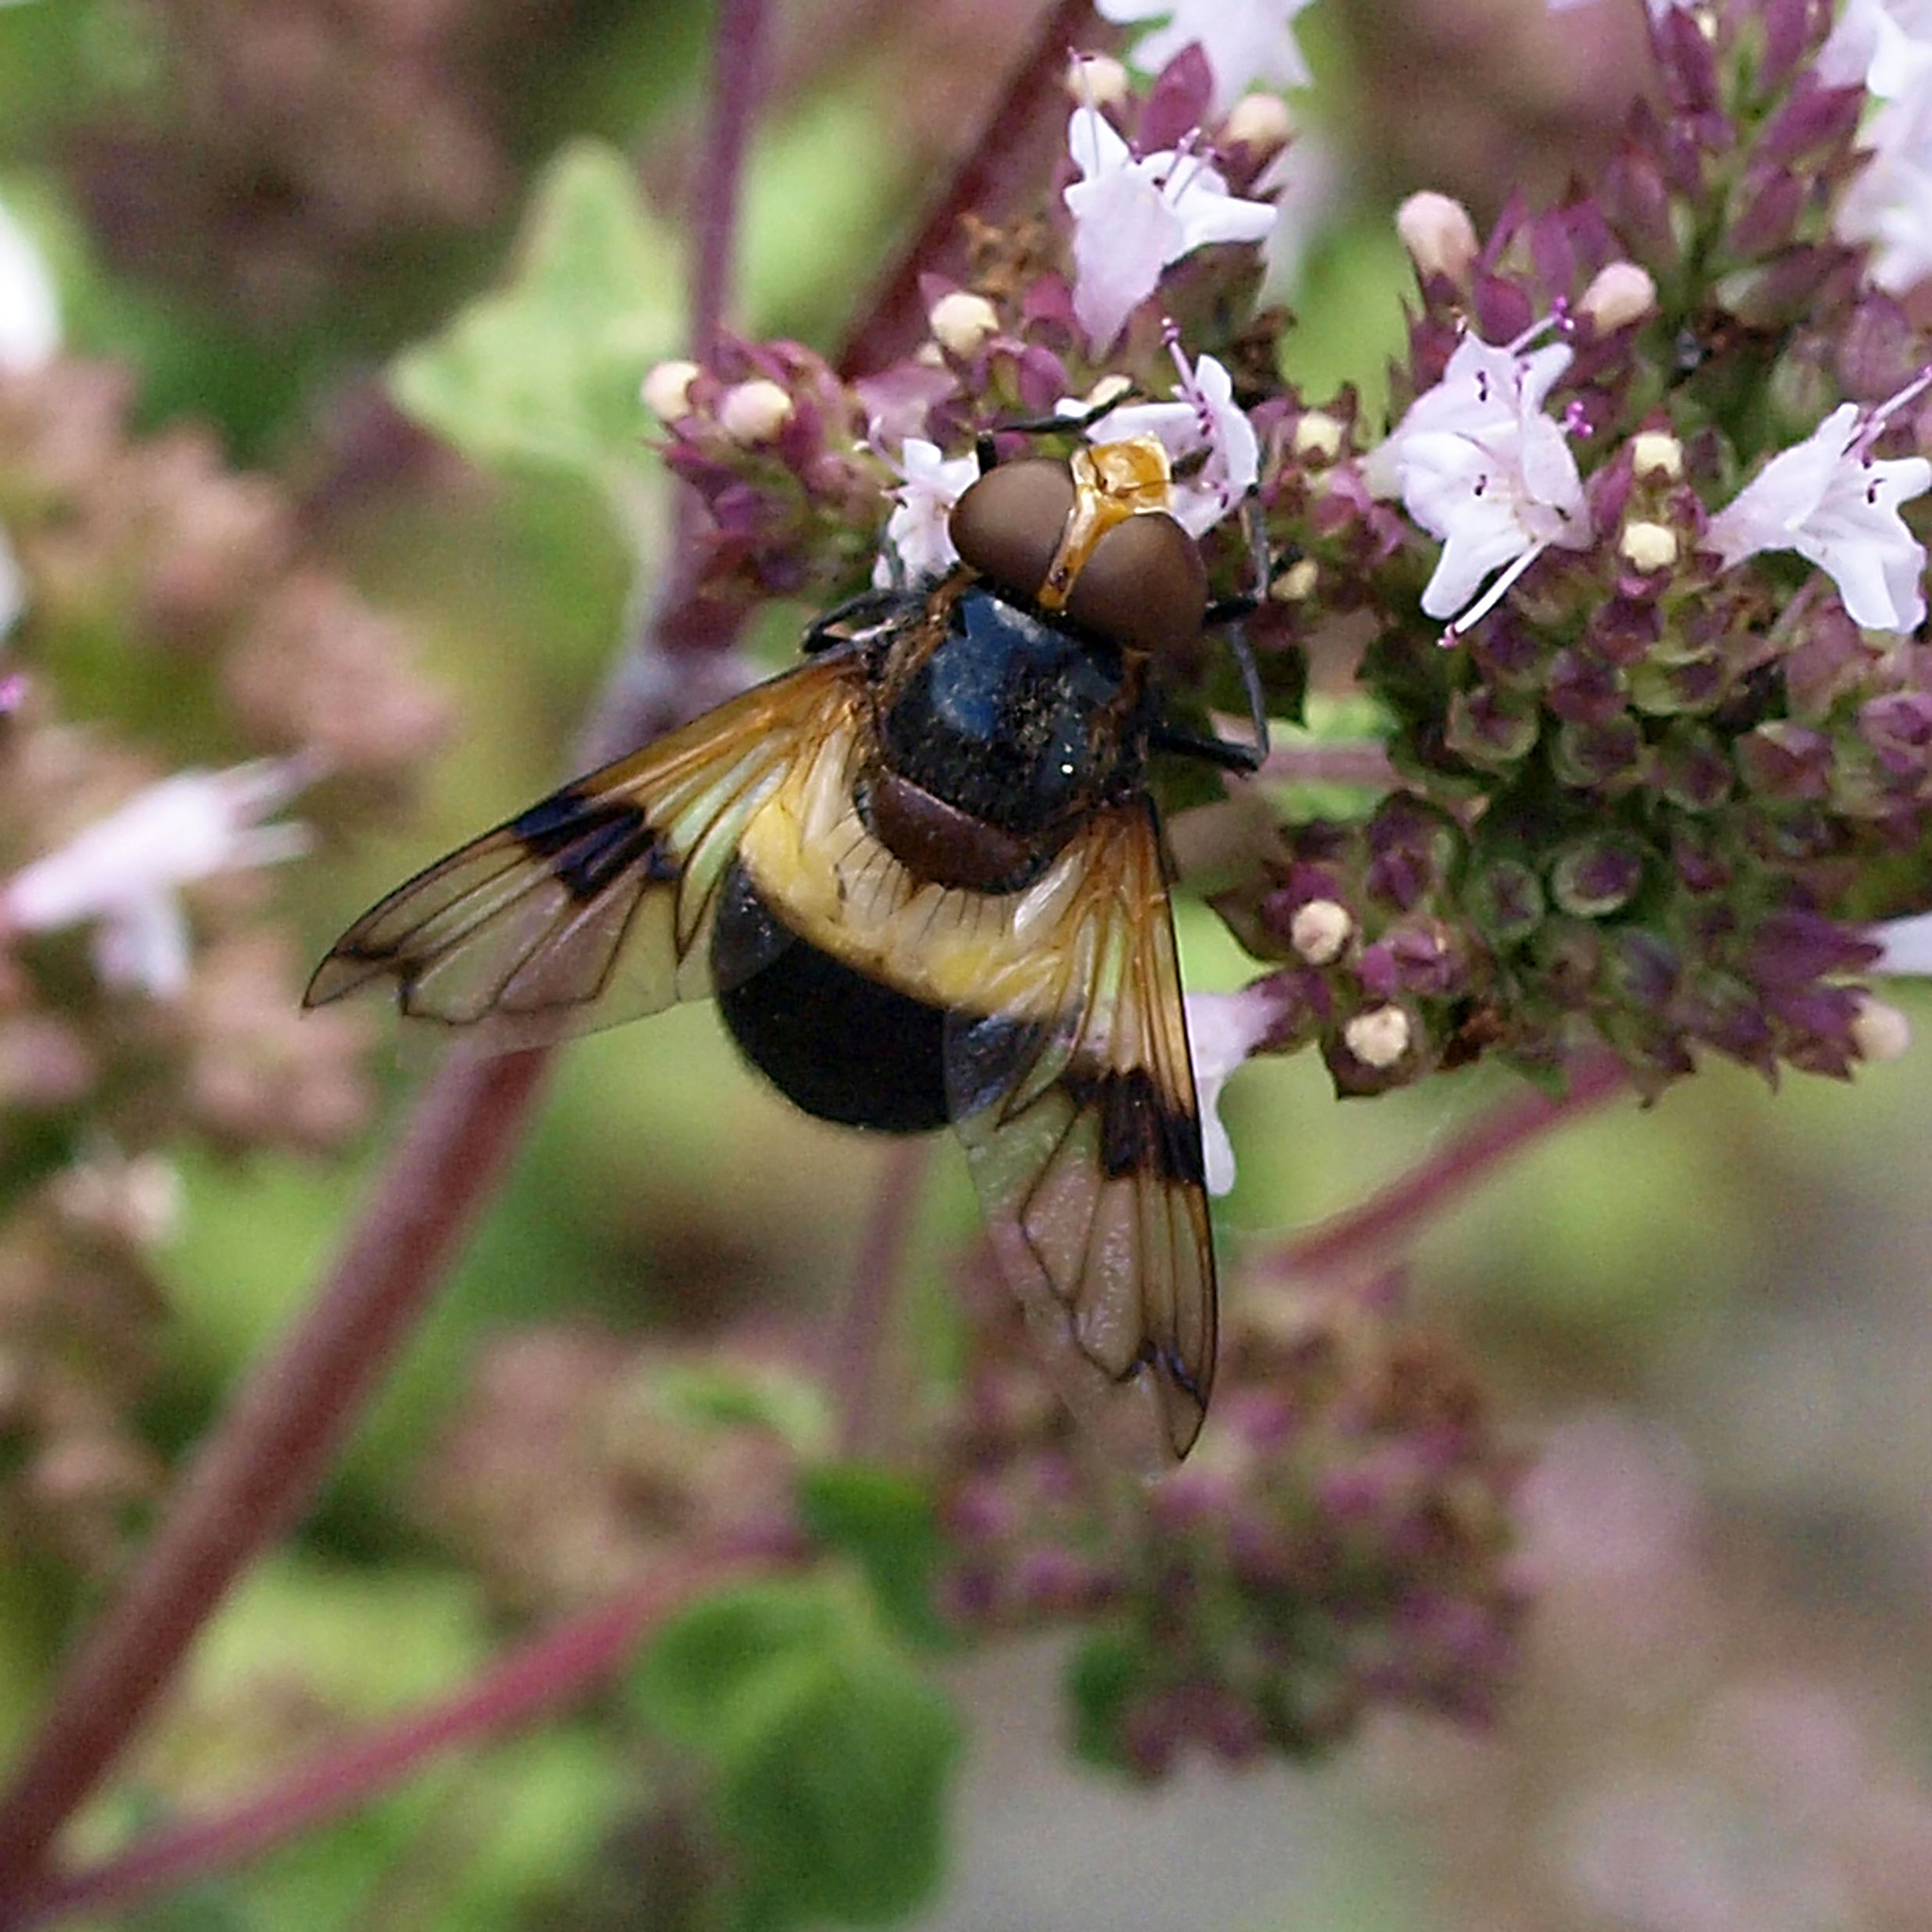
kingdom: Animalia
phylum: Arthropoda
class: Insecta
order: Diptera
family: Syrphidae
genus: Volucella
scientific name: Volucella pellucens
